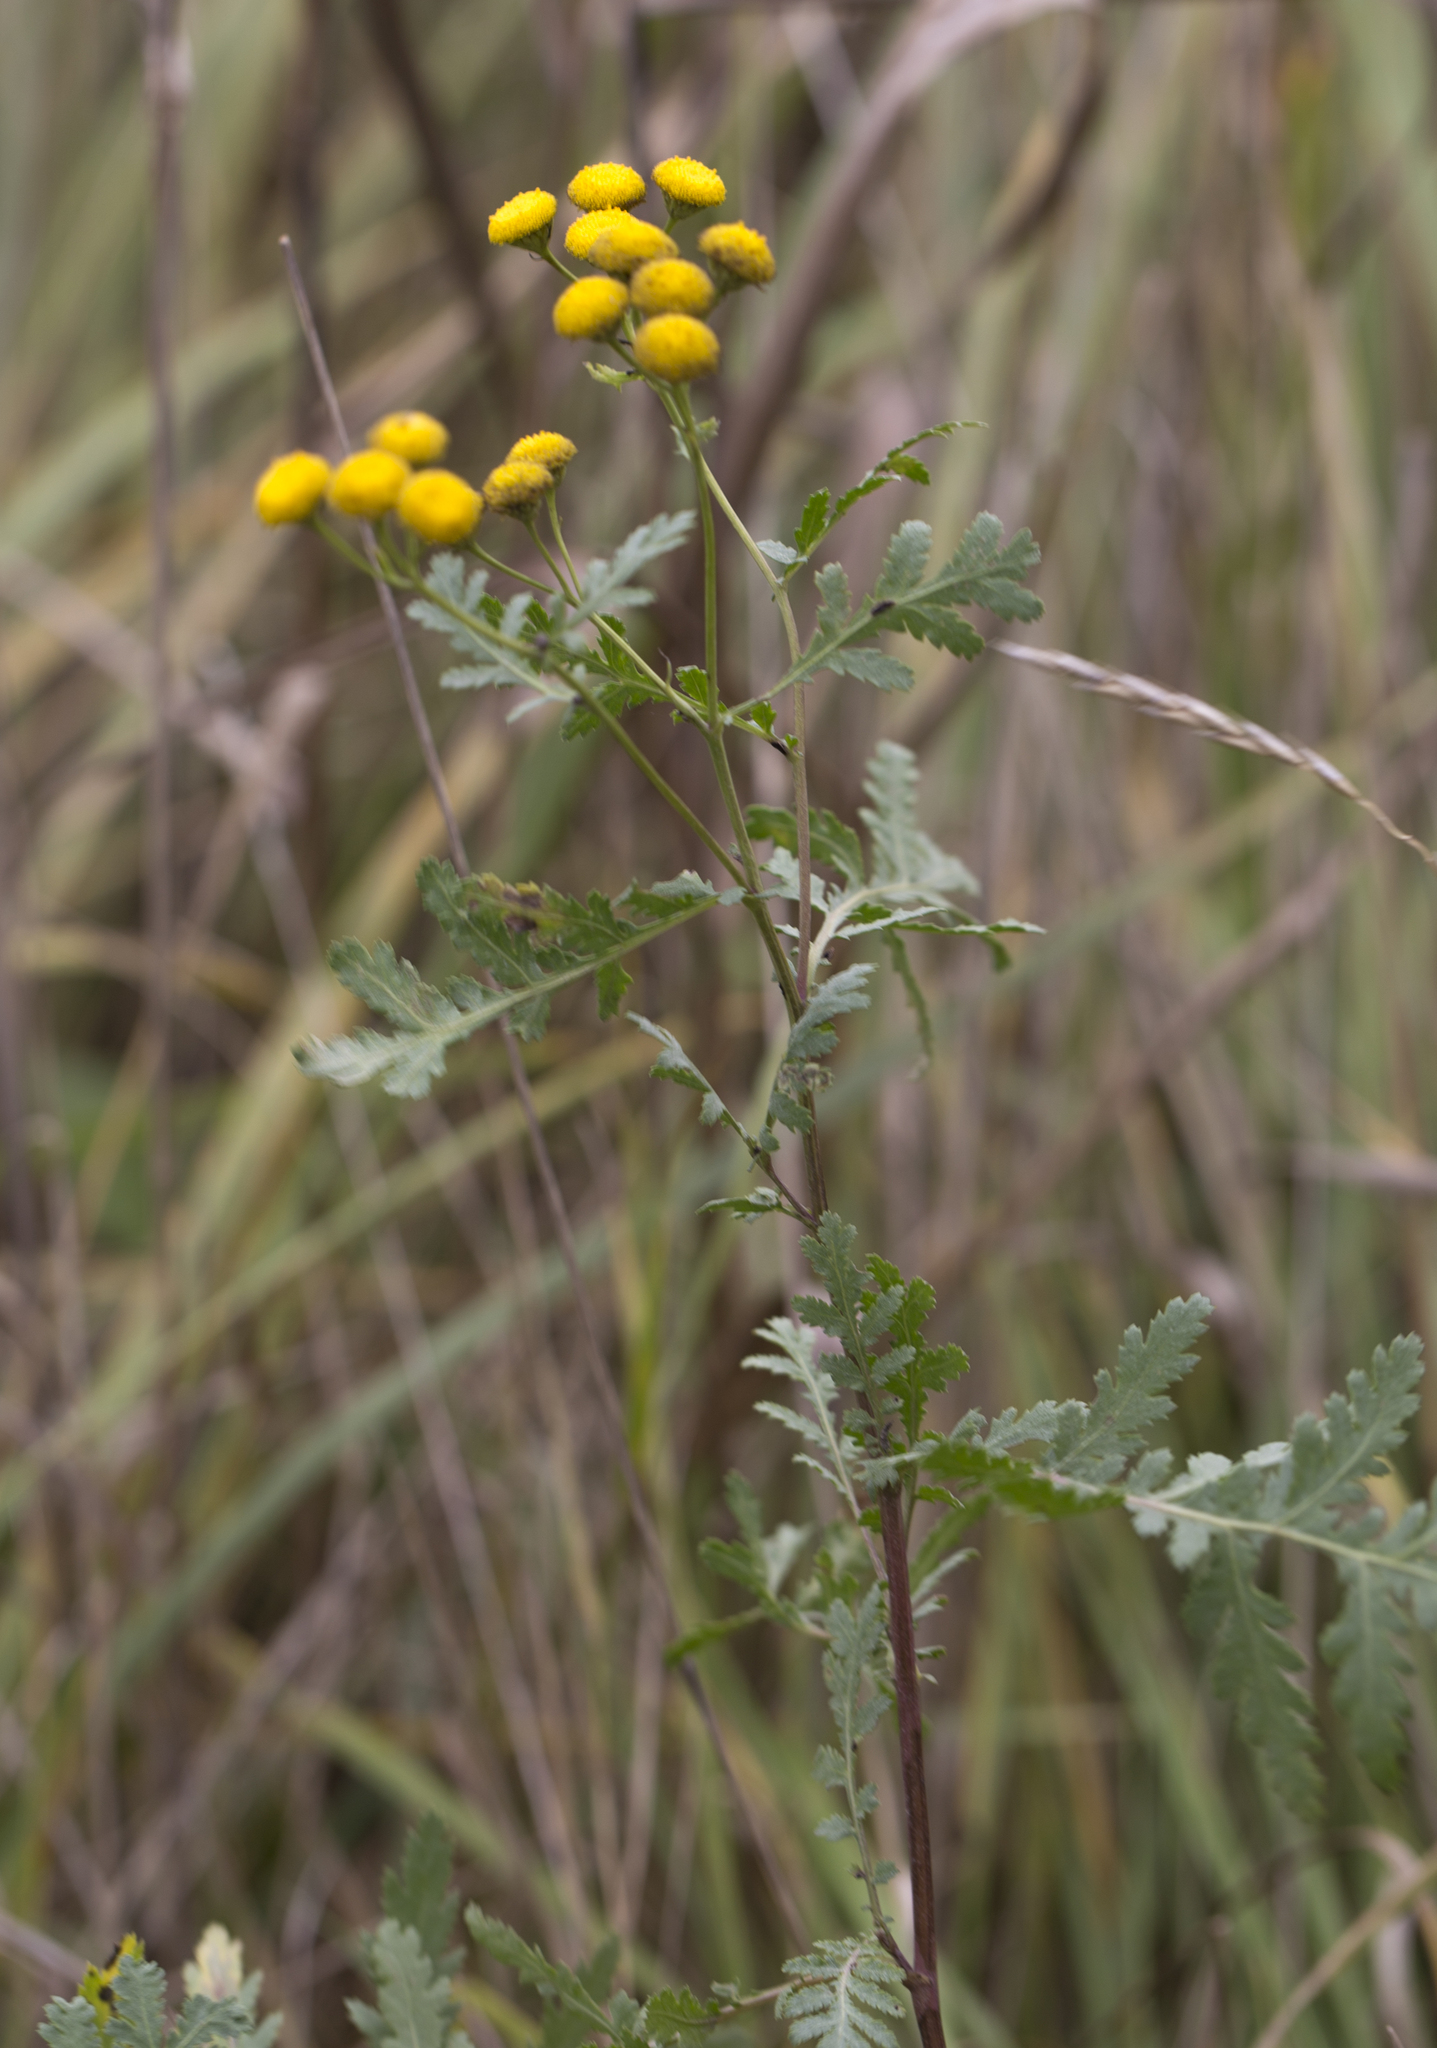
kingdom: Plantae
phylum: Tracheophyta
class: Magnoliopsida
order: Asterales
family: Asteraceae
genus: Tanacetum
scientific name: Tanacetum vulgare
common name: Common tansy
